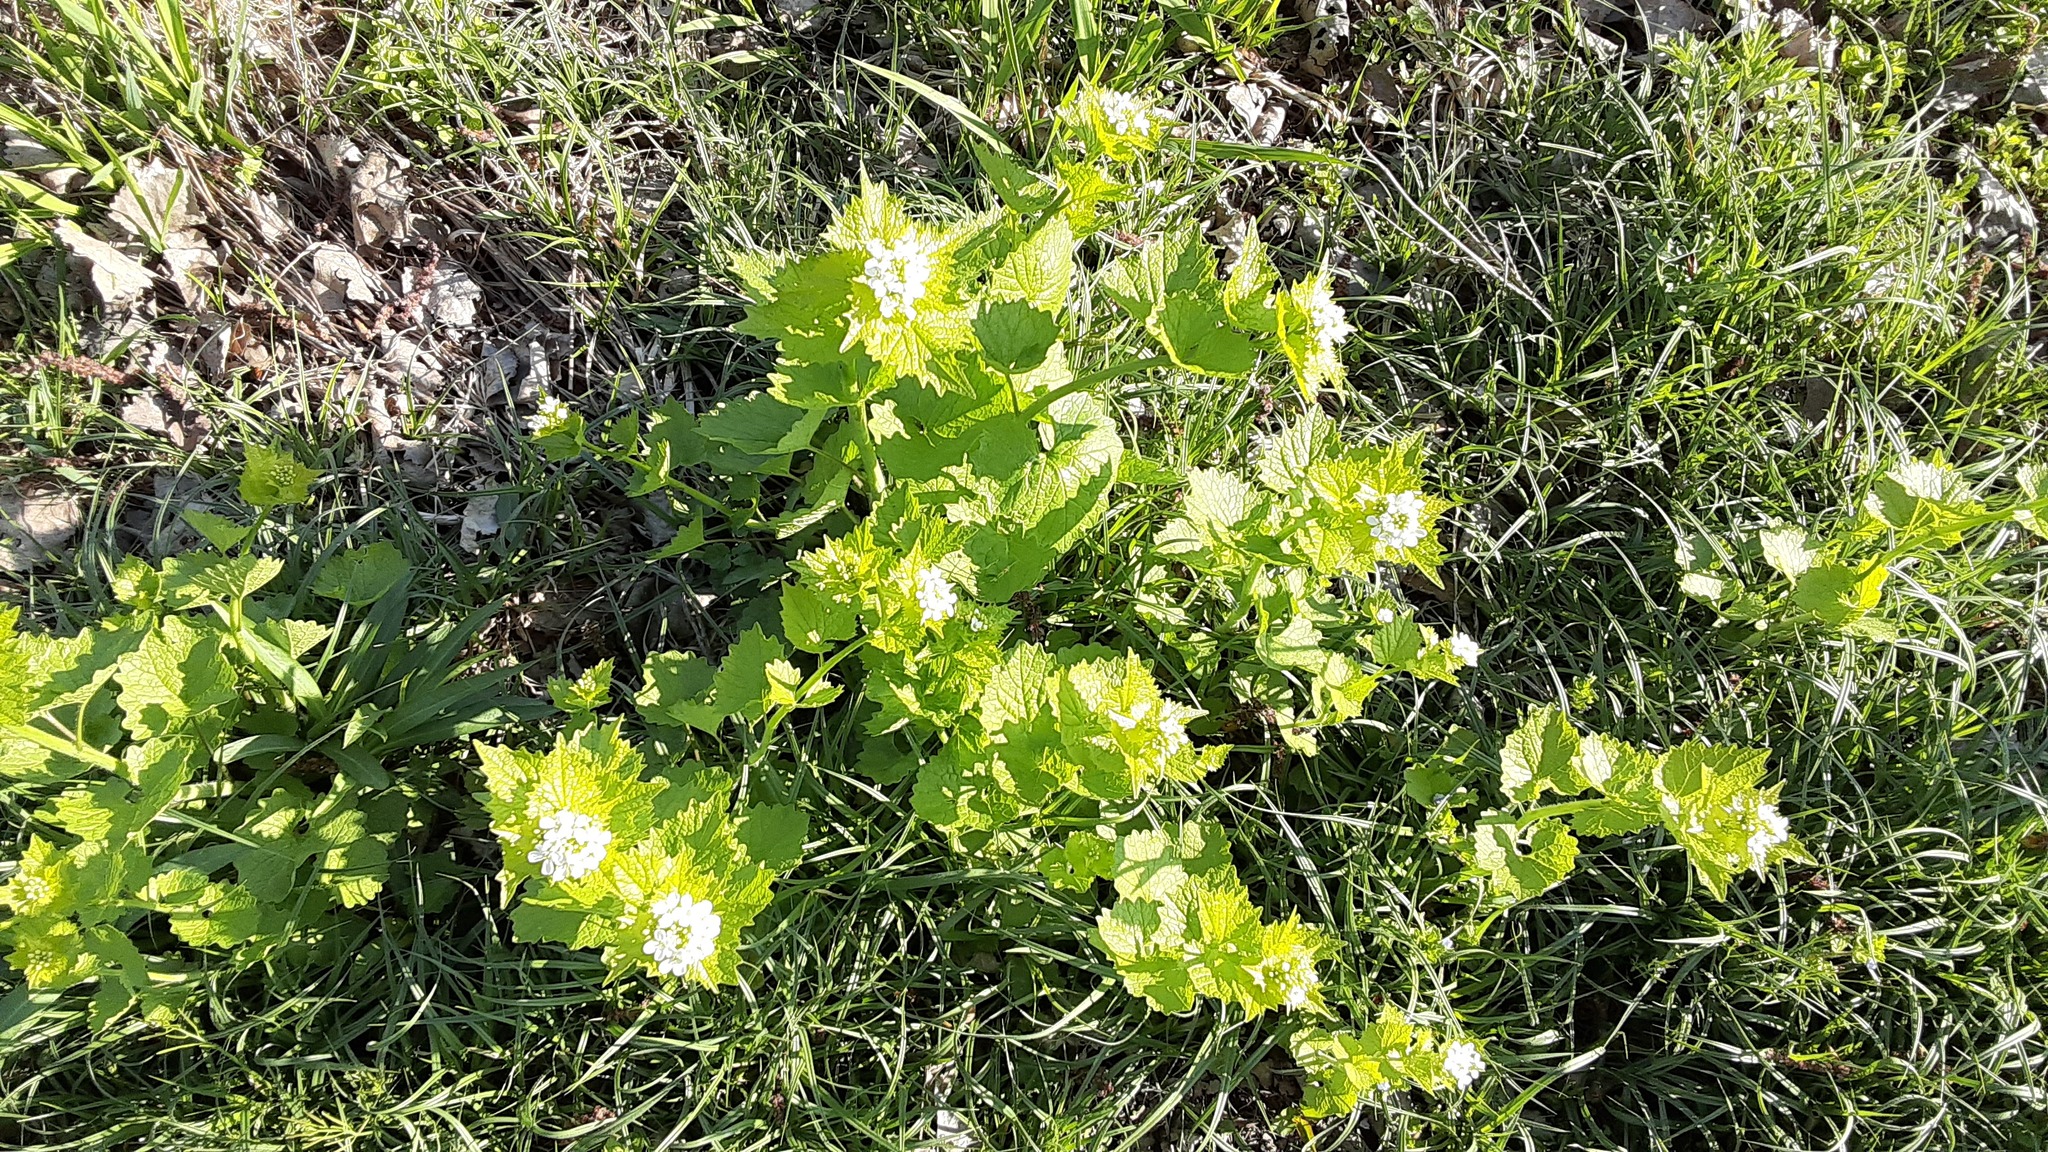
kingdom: Plantae
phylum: Tracheophyta
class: Magnoliopsida
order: Brassicales
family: Brassicaceae
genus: Alliaria
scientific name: Alliaria petiolata
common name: Garlic mustard
